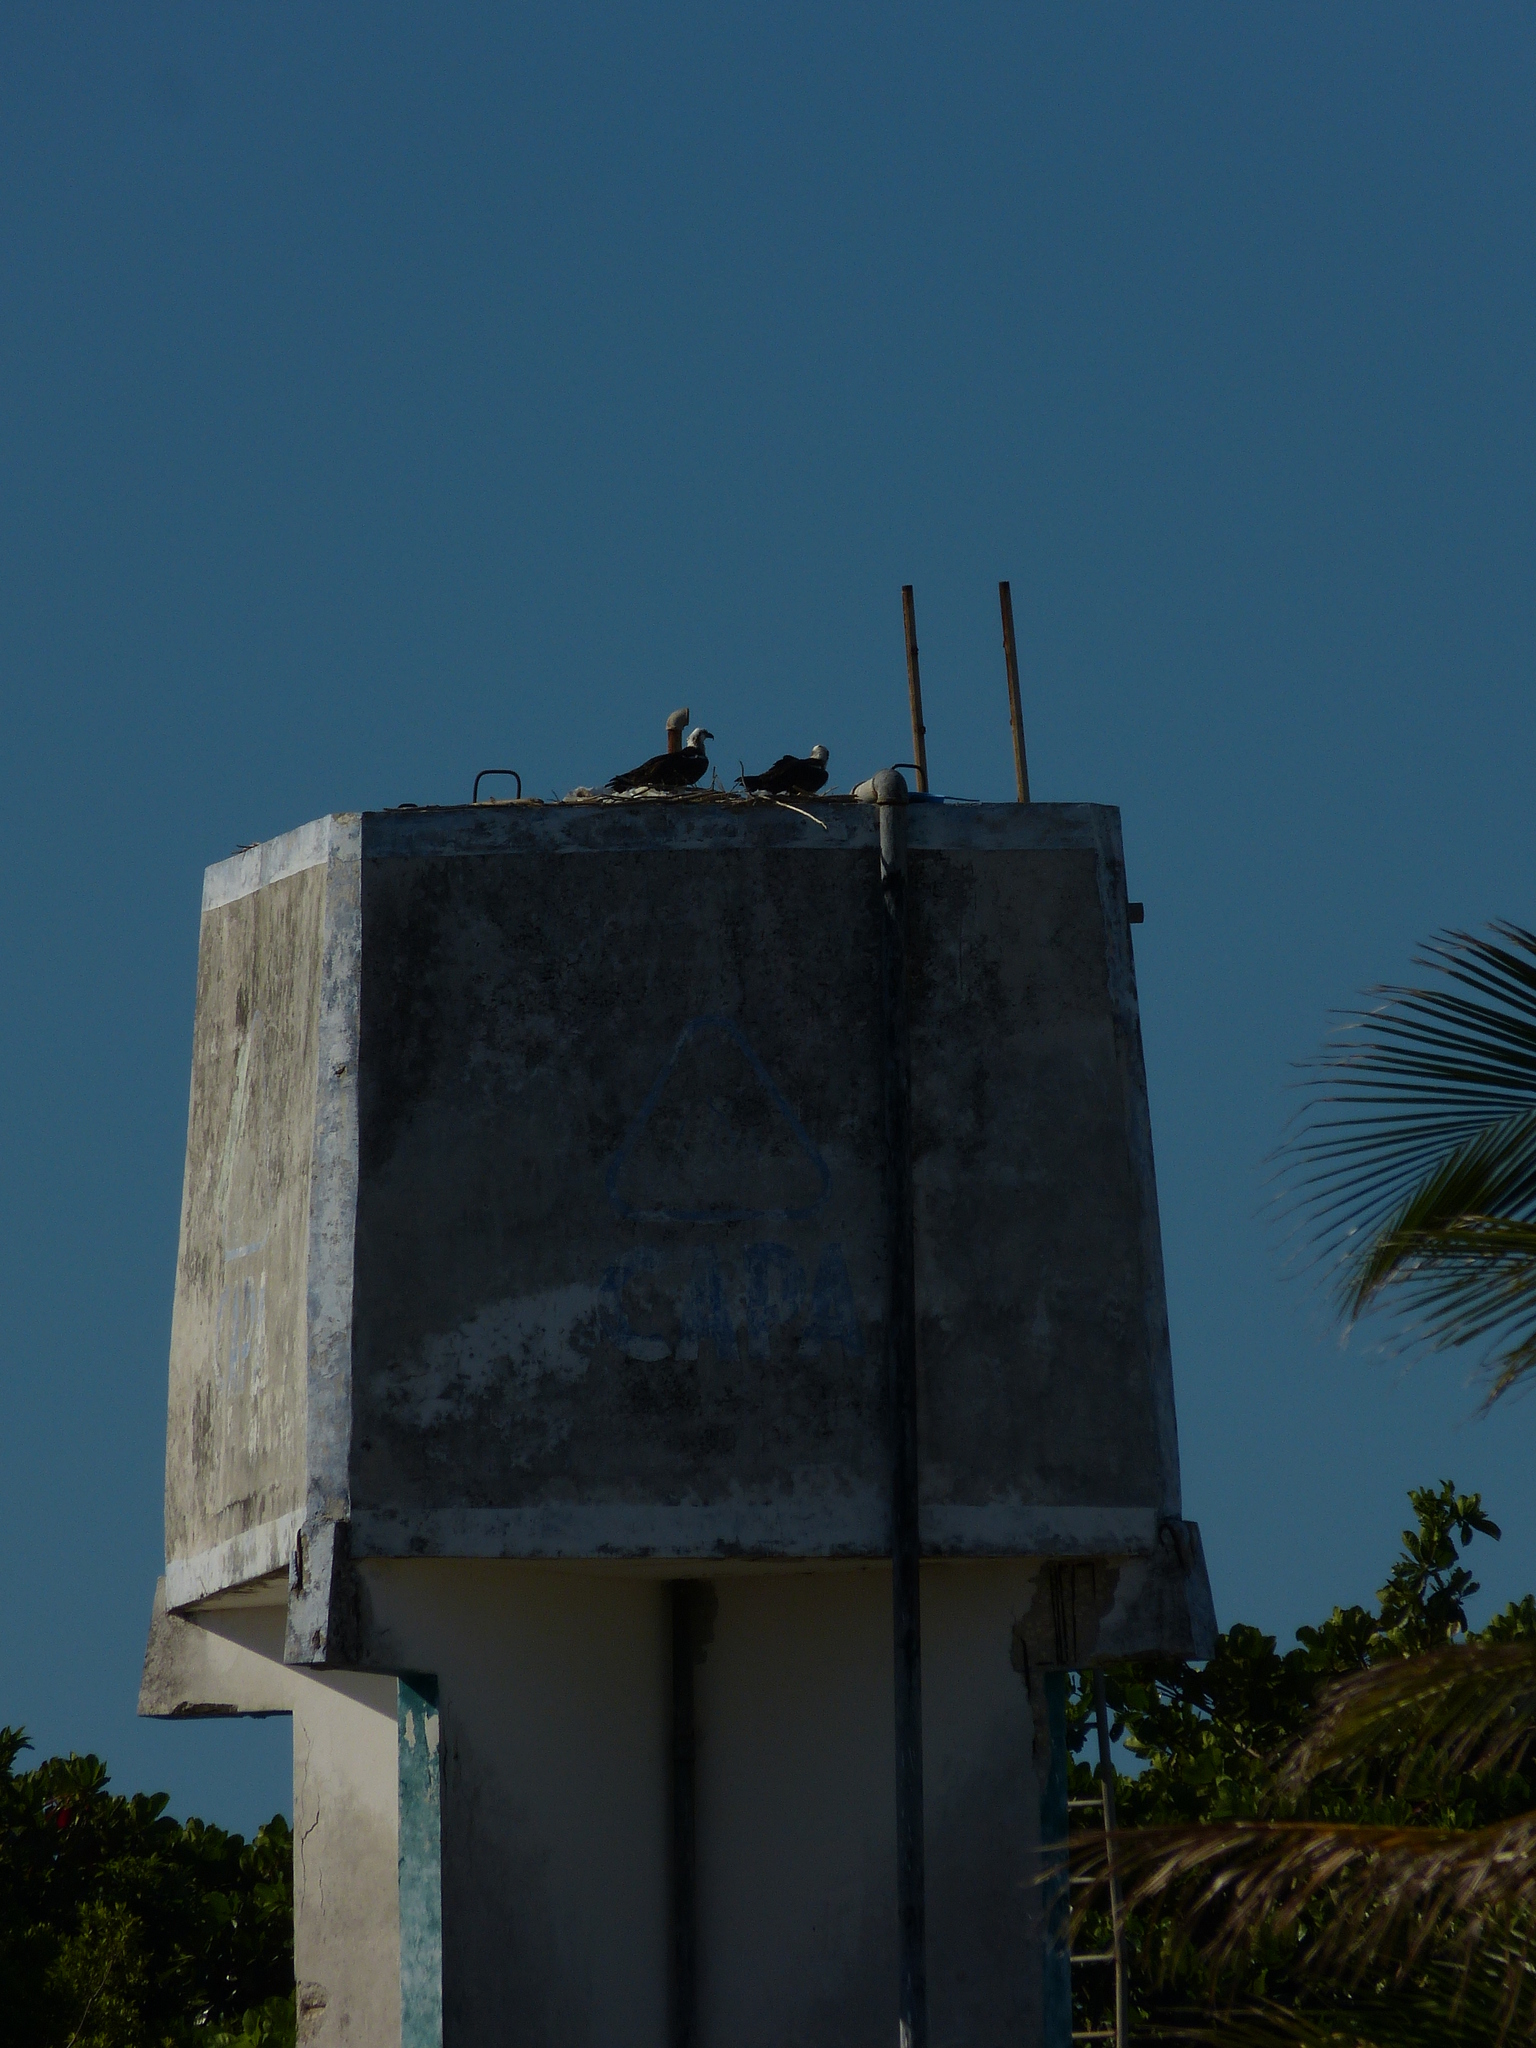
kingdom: Animalia
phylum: Chordata
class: Aves
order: Accipitriformes
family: Pandionidae
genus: Pandion
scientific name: Pandion haliaetus
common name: Osprey
